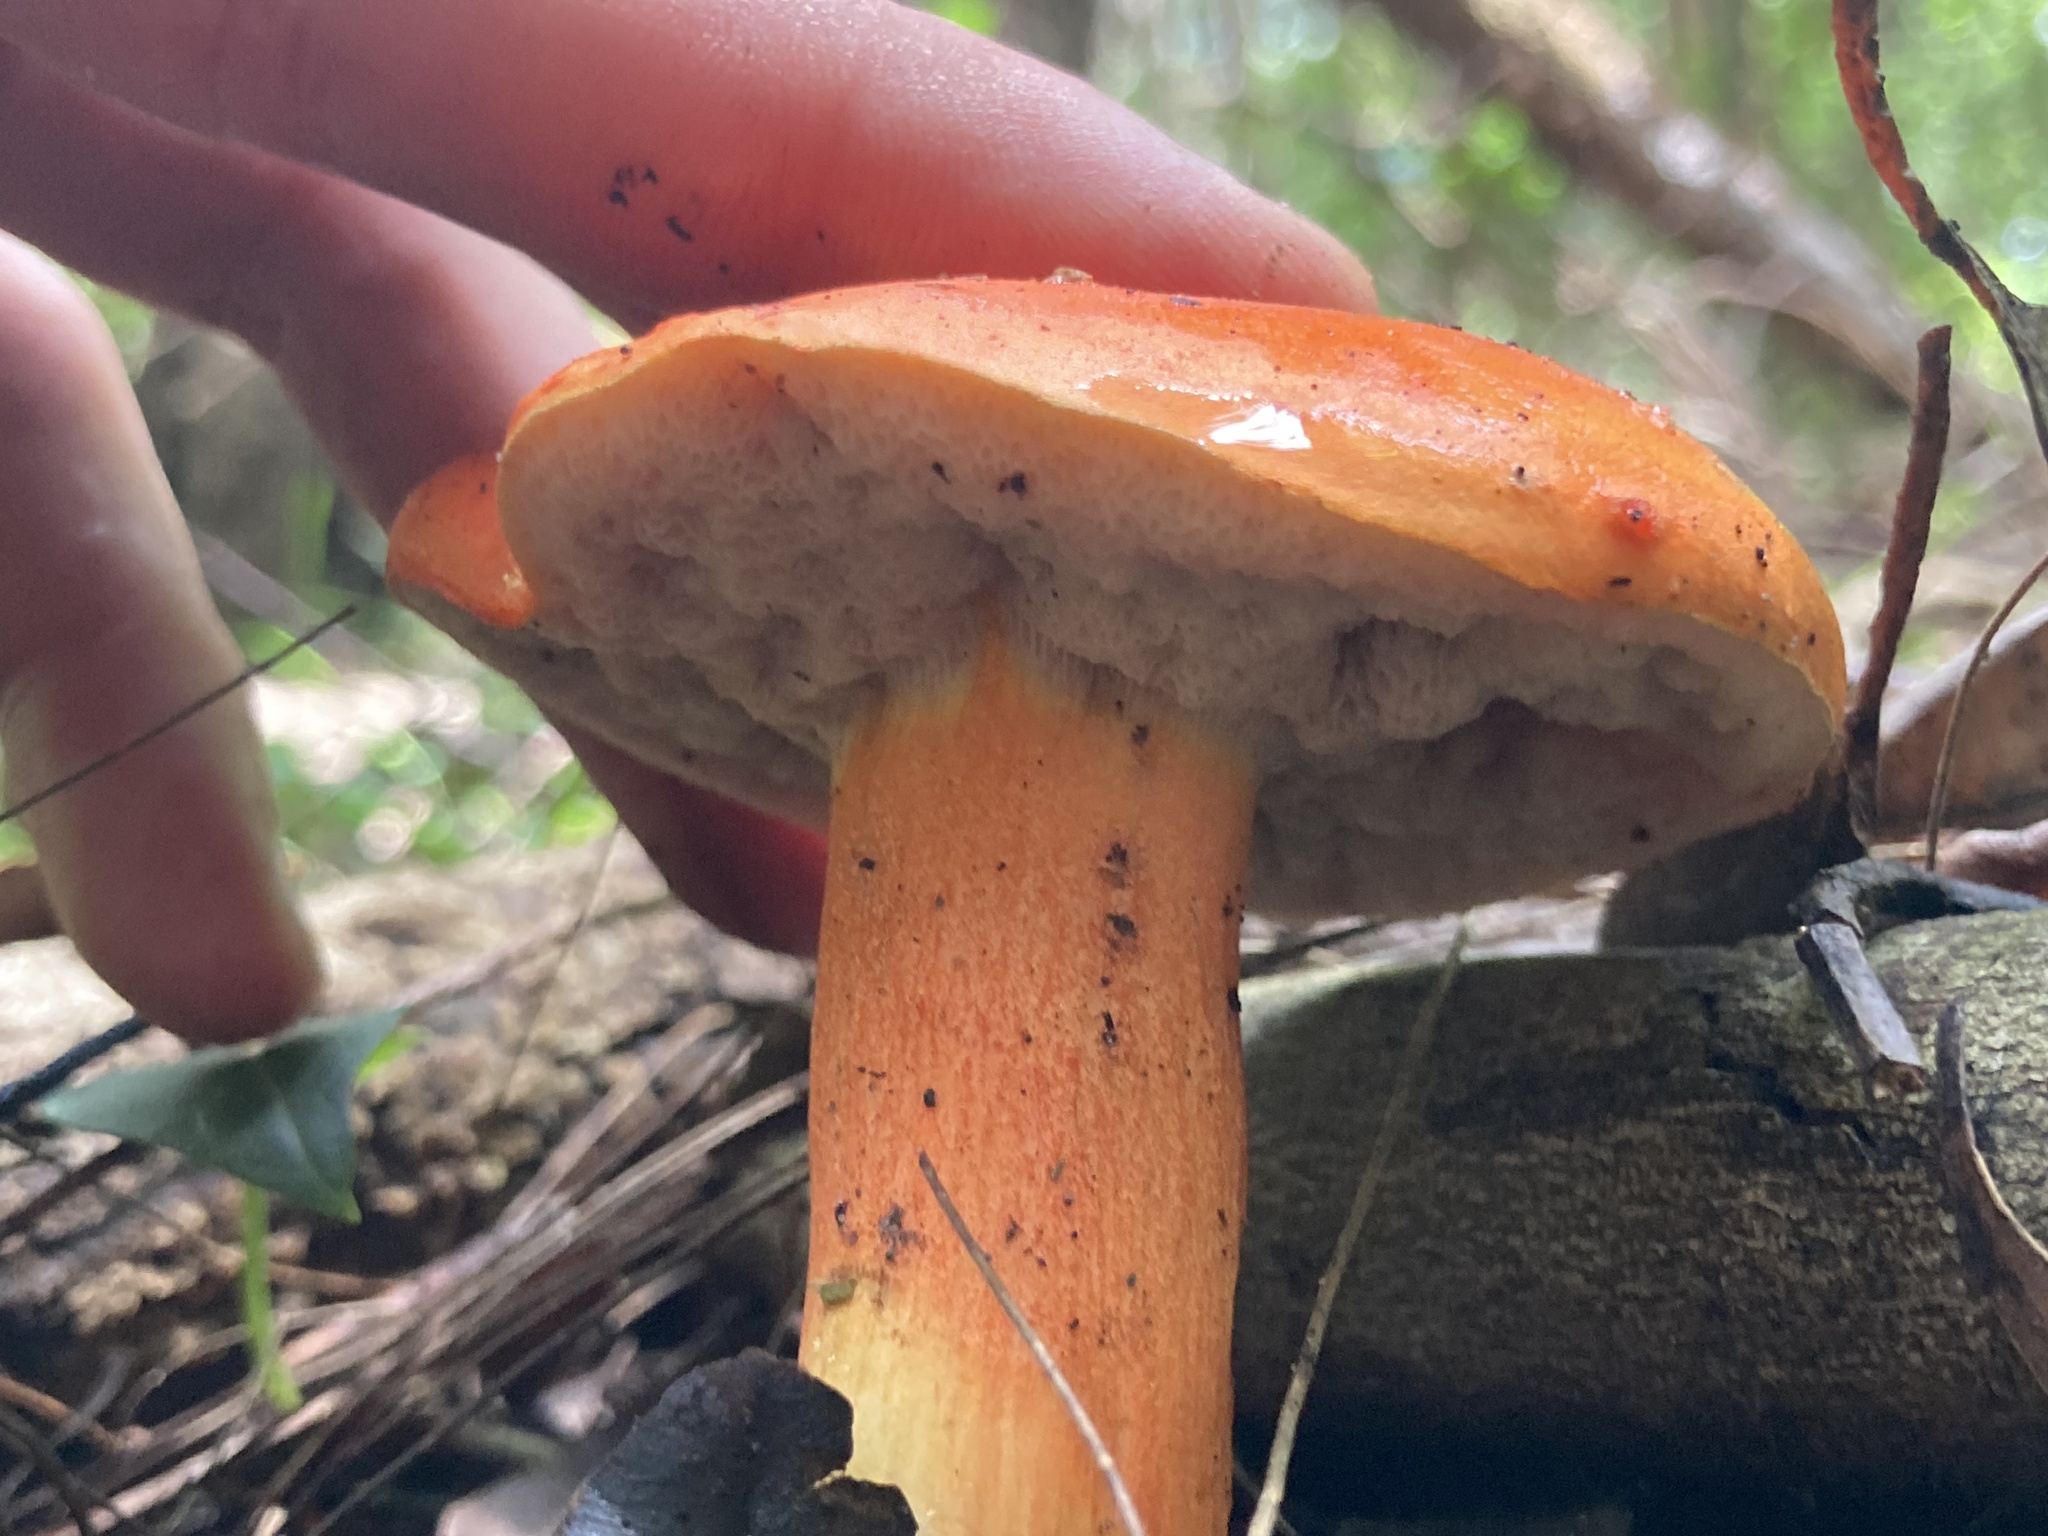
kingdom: Fungi
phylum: Basidiomycota
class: Agaricomycetes
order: Boletales
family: Boletaceae
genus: Tylopilus
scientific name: Tylopilus balloui
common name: Burnt-orange bolete
